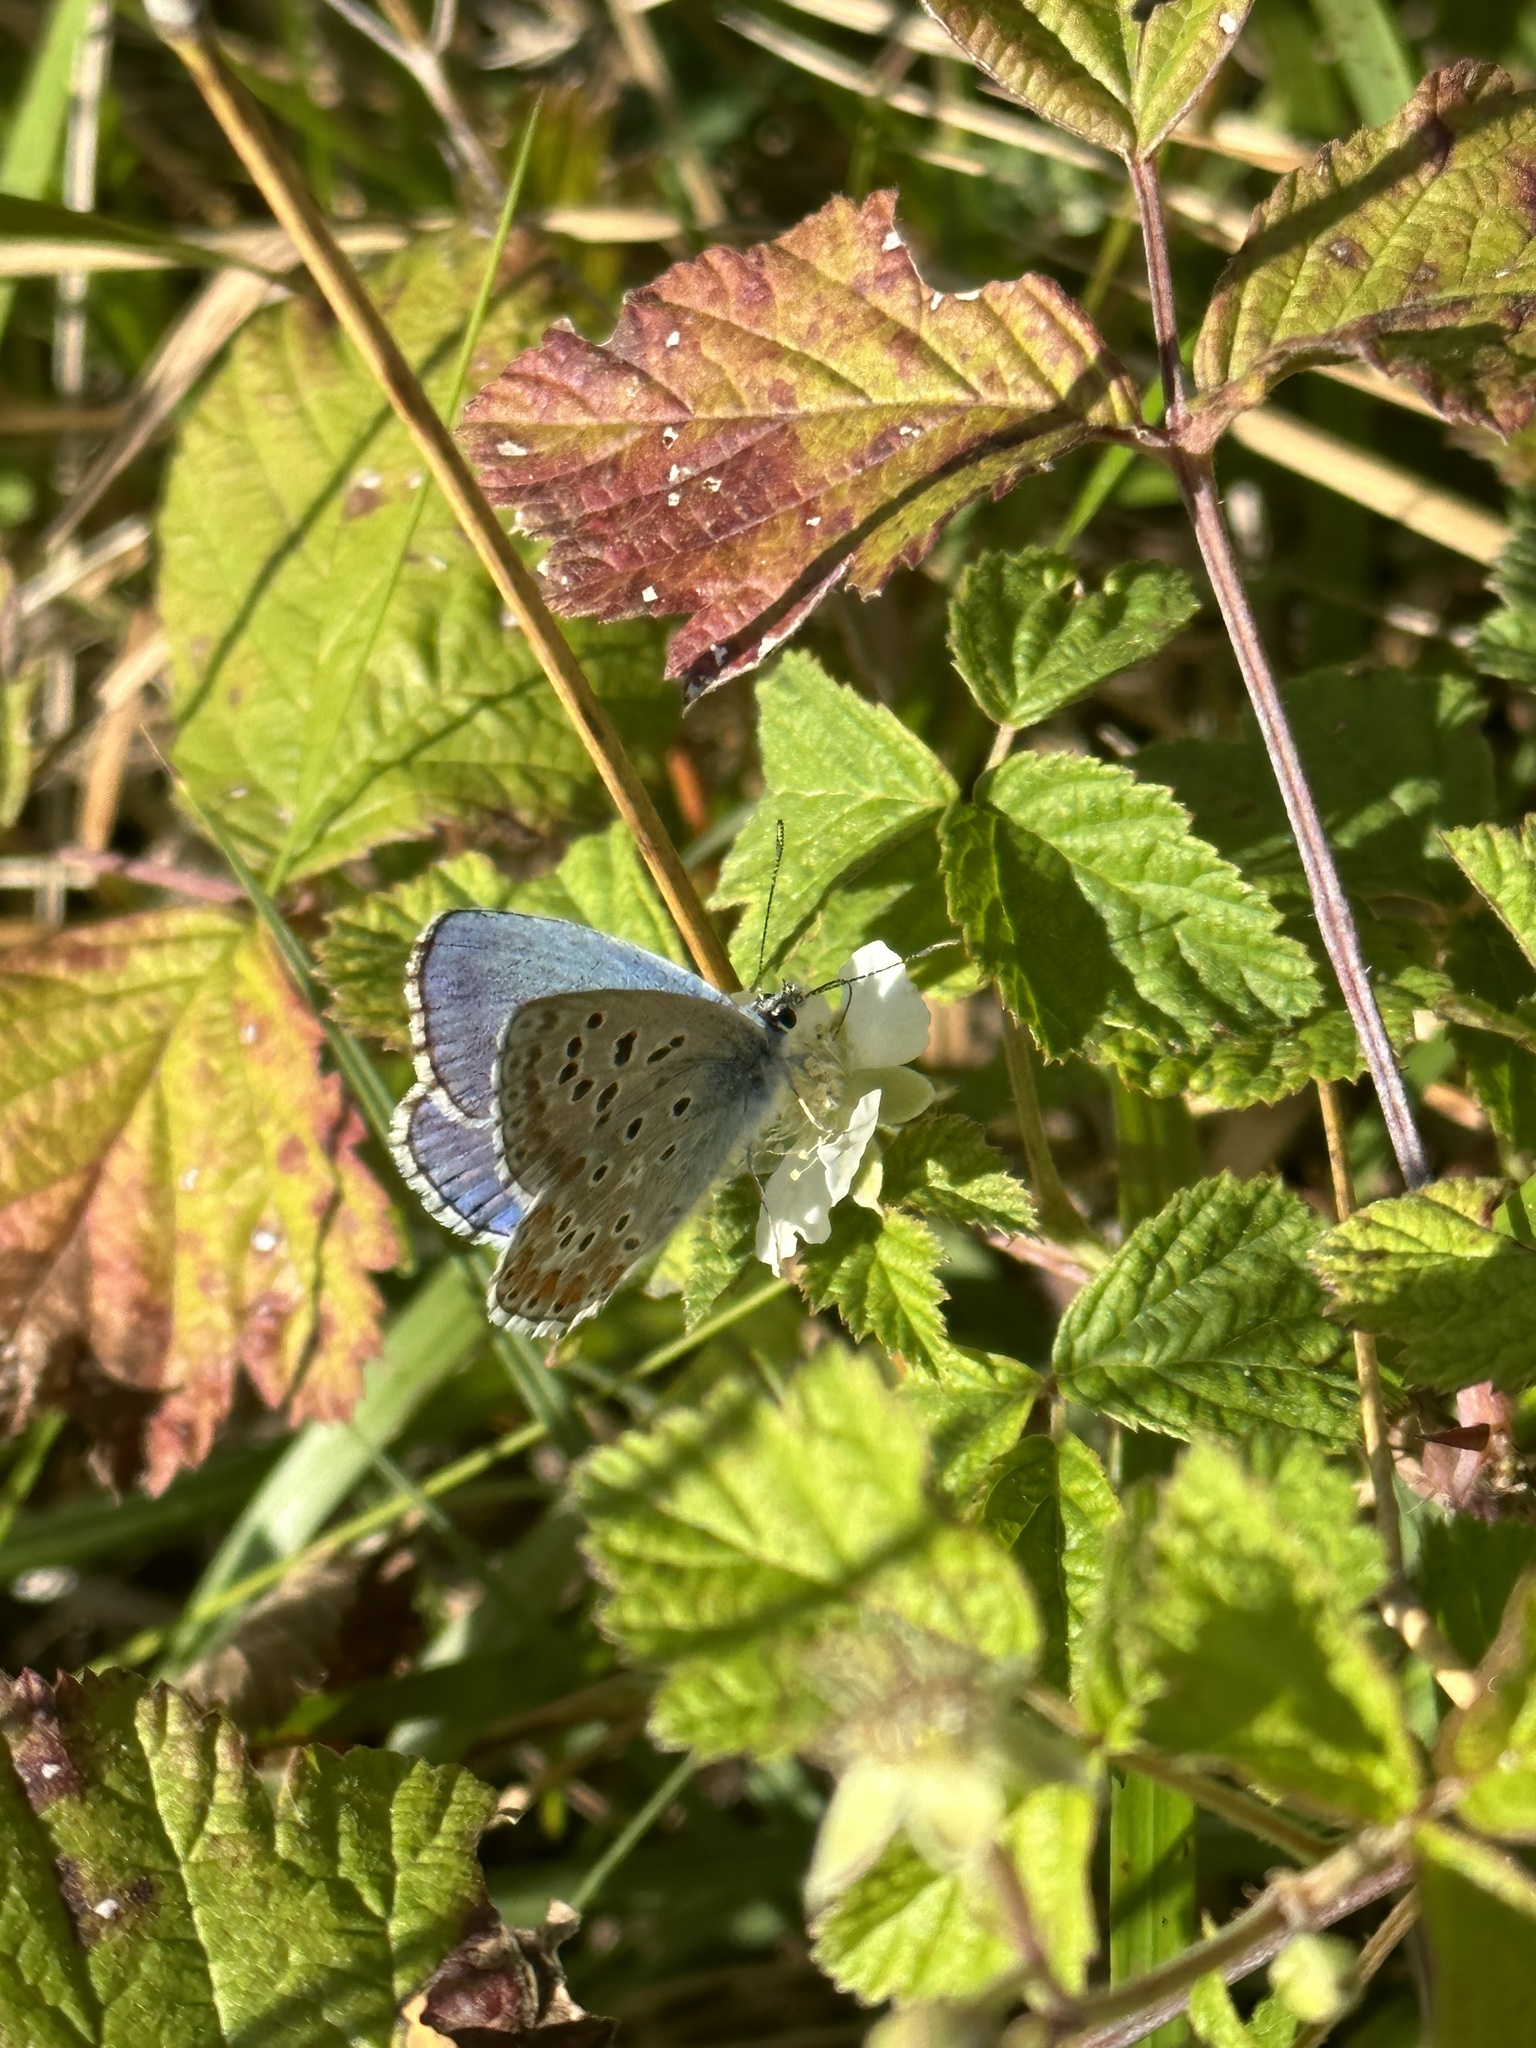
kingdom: Animalia
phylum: Arthropoda
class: Insecta
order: Lepidoptera
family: Lycaenidae
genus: Lysandra
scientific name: Lysandra bellargus
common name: Adonis blue
